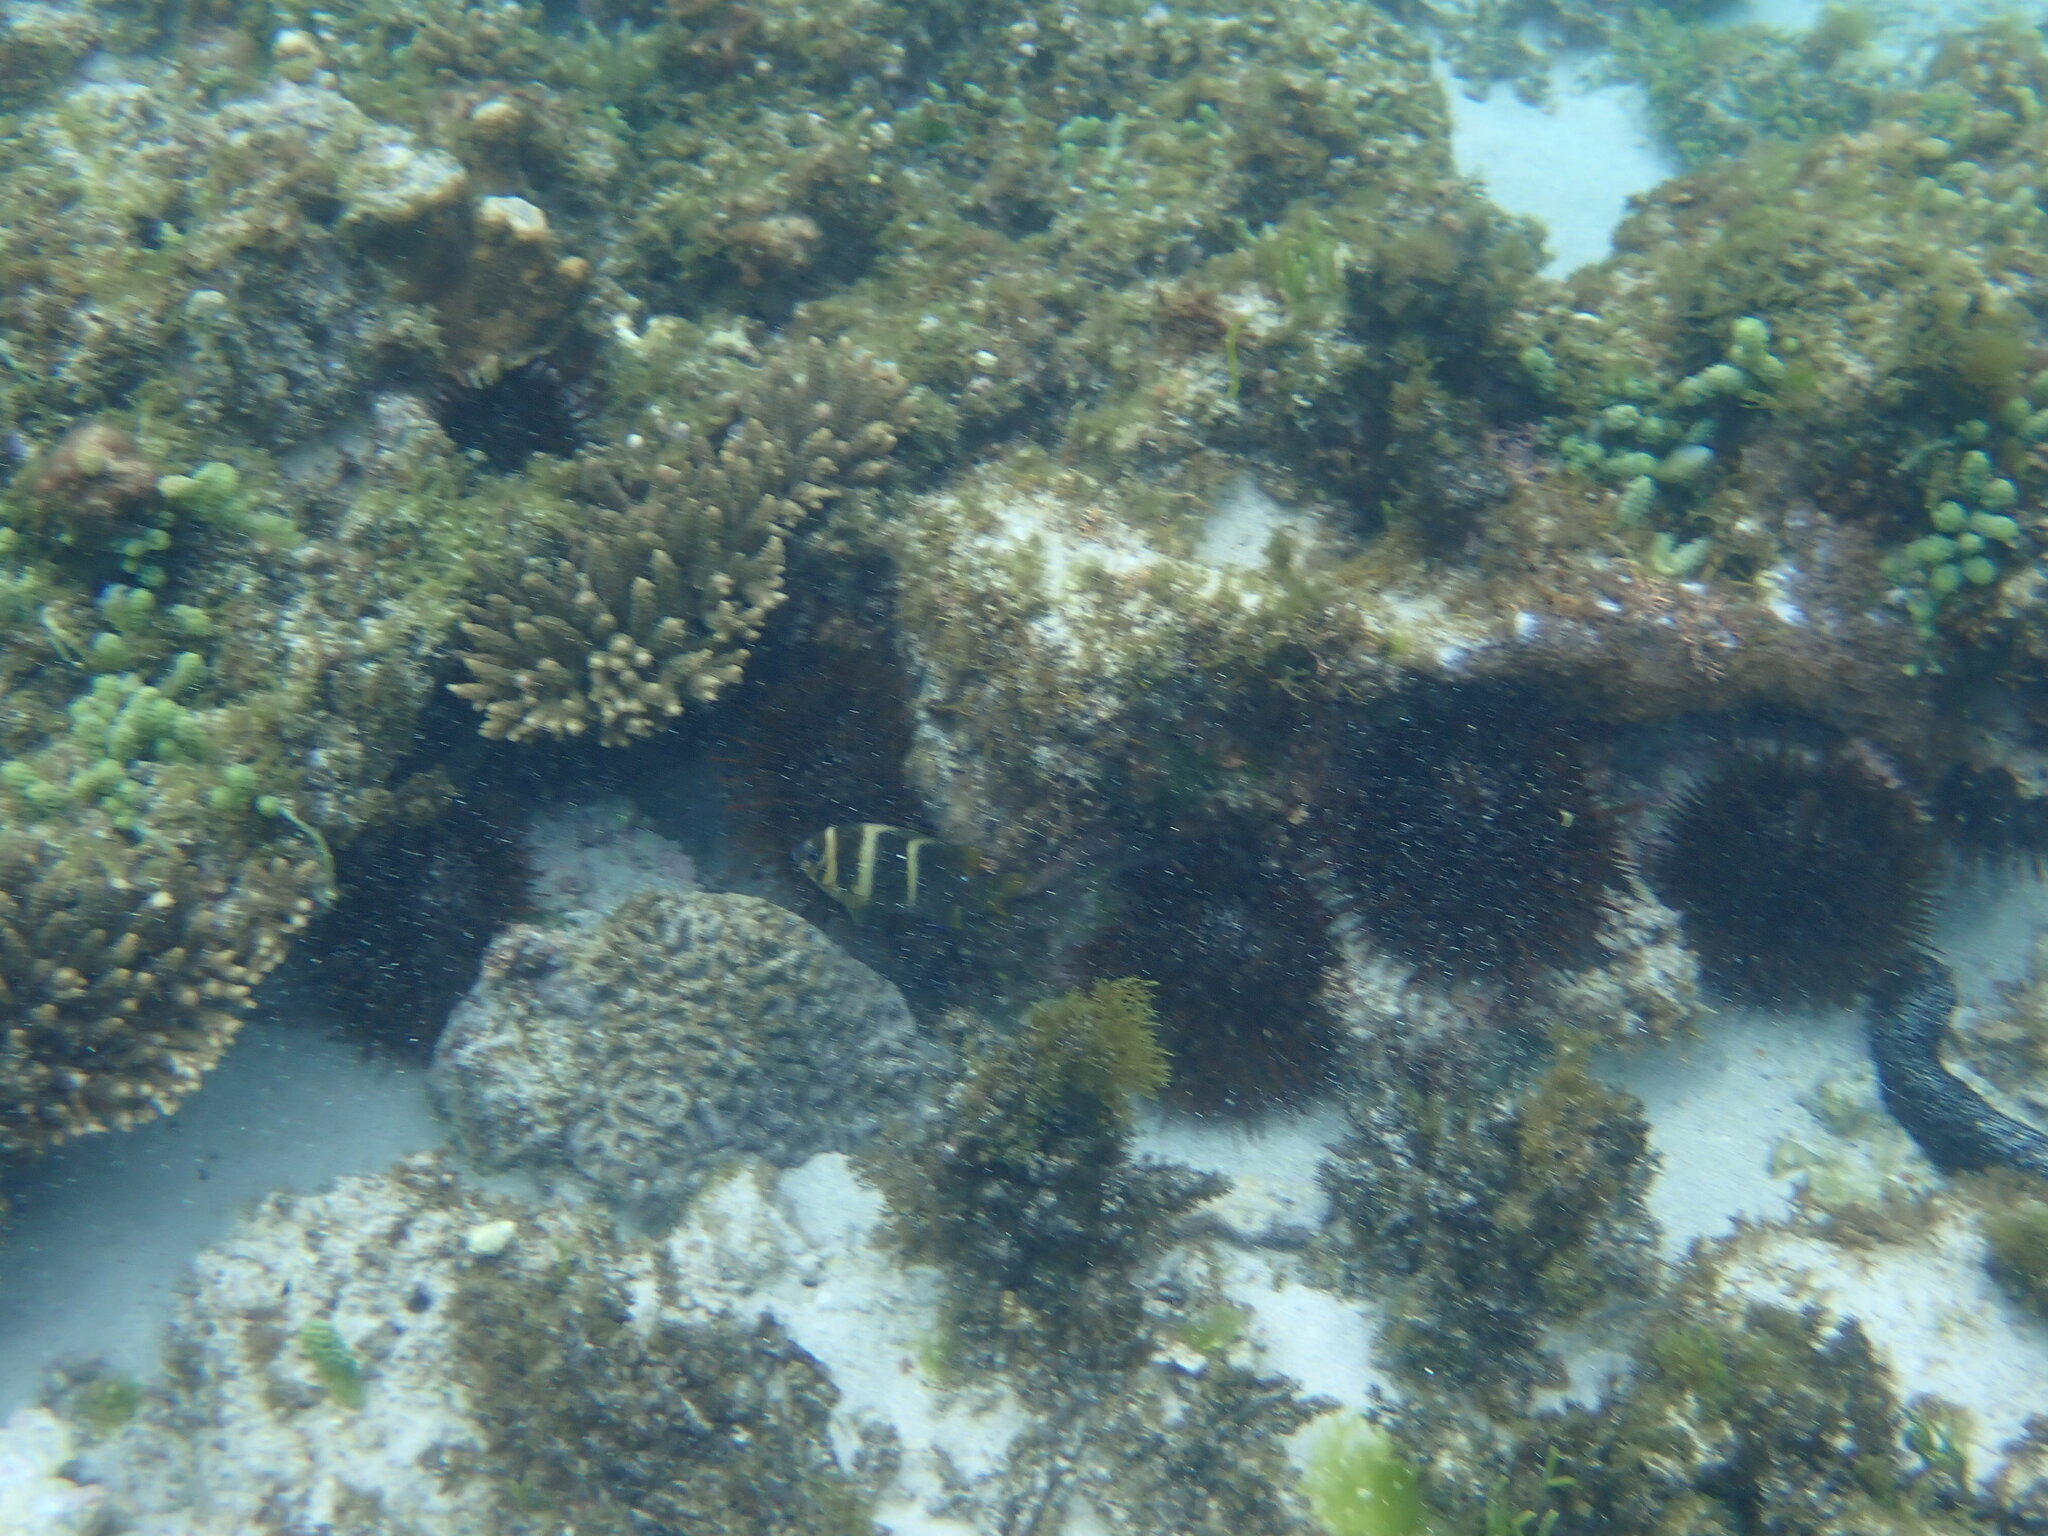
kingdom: Animalia
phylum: Chordata
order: Perciformes
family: Pomacentridae
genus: Parma
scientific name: Parma polylepis
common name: Banded parma
